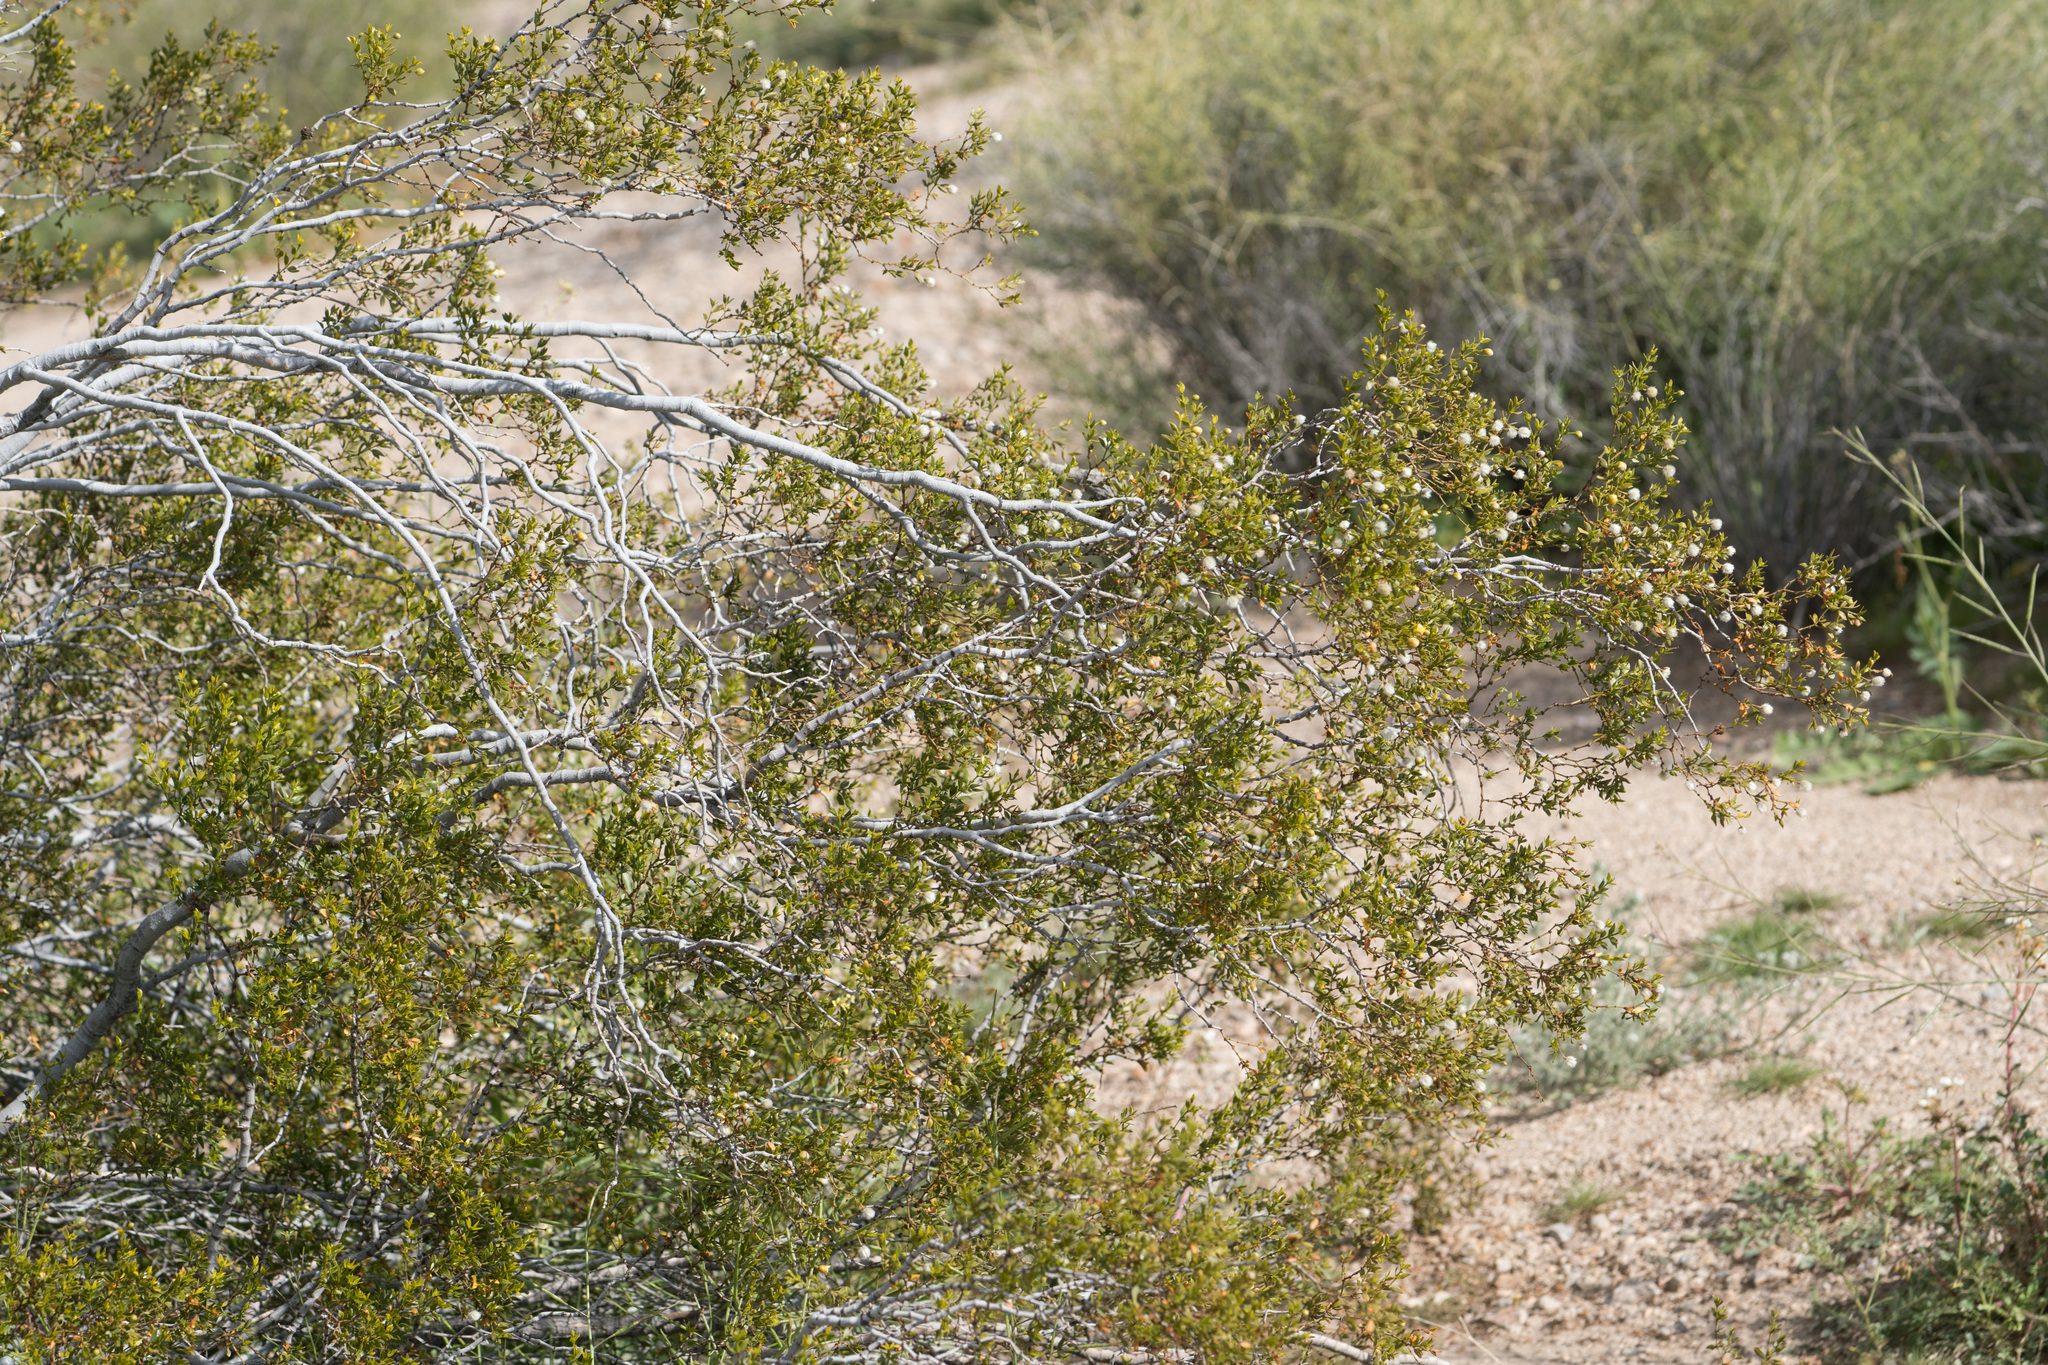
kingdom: Plantae
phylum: Tracheophyta
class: Magnoliopsida
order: Zygophyllales
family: Zygophyllaceae
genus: Larrea
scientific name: Larrea tridentata
